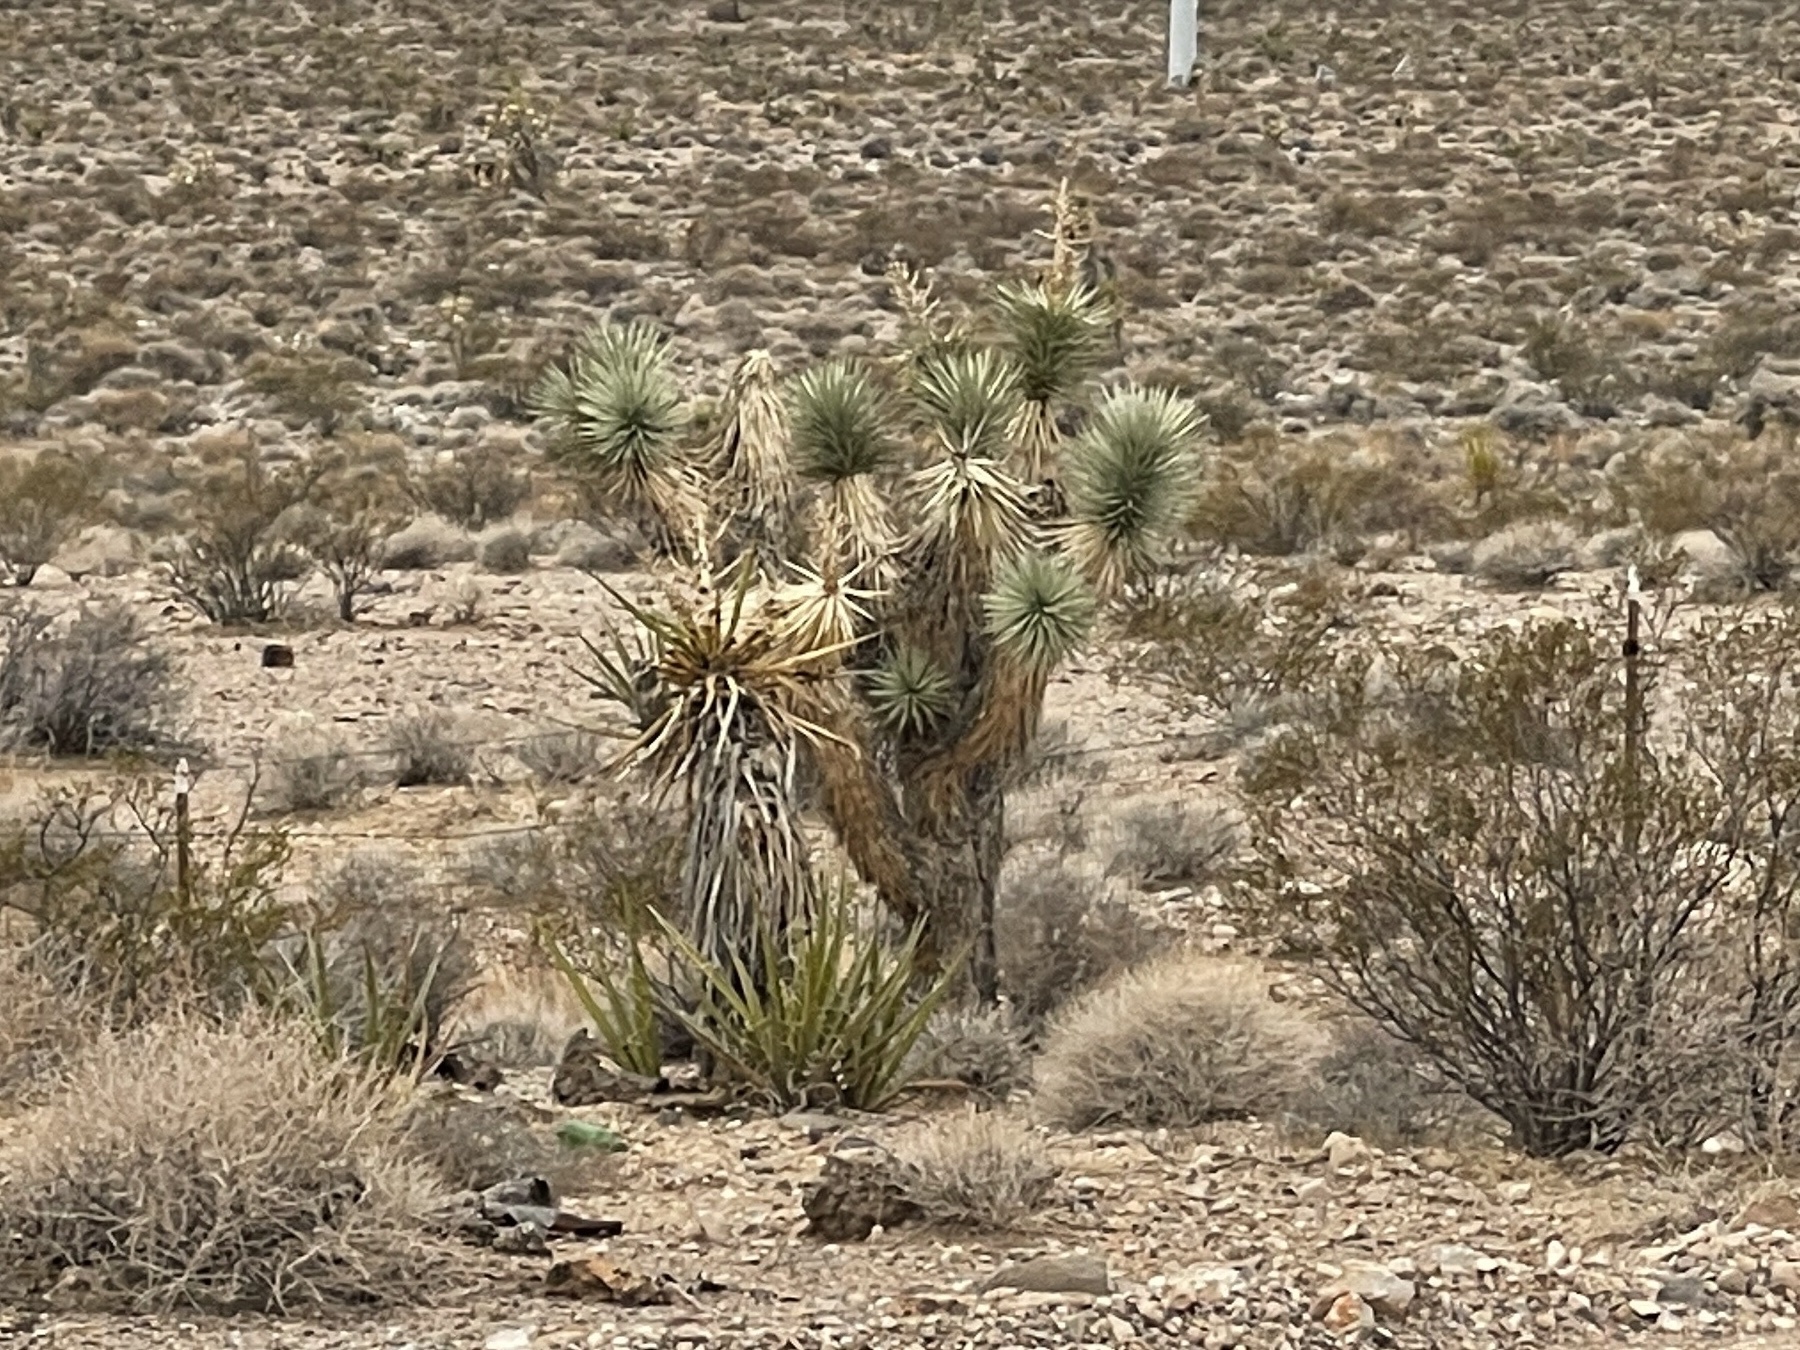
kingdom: Plantae
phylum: Tracheophyta
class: Liliopsida
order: Asparagales
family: Asparagaceae
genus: Yucca
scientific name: Yucca brevifolia
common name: Joshua tree
